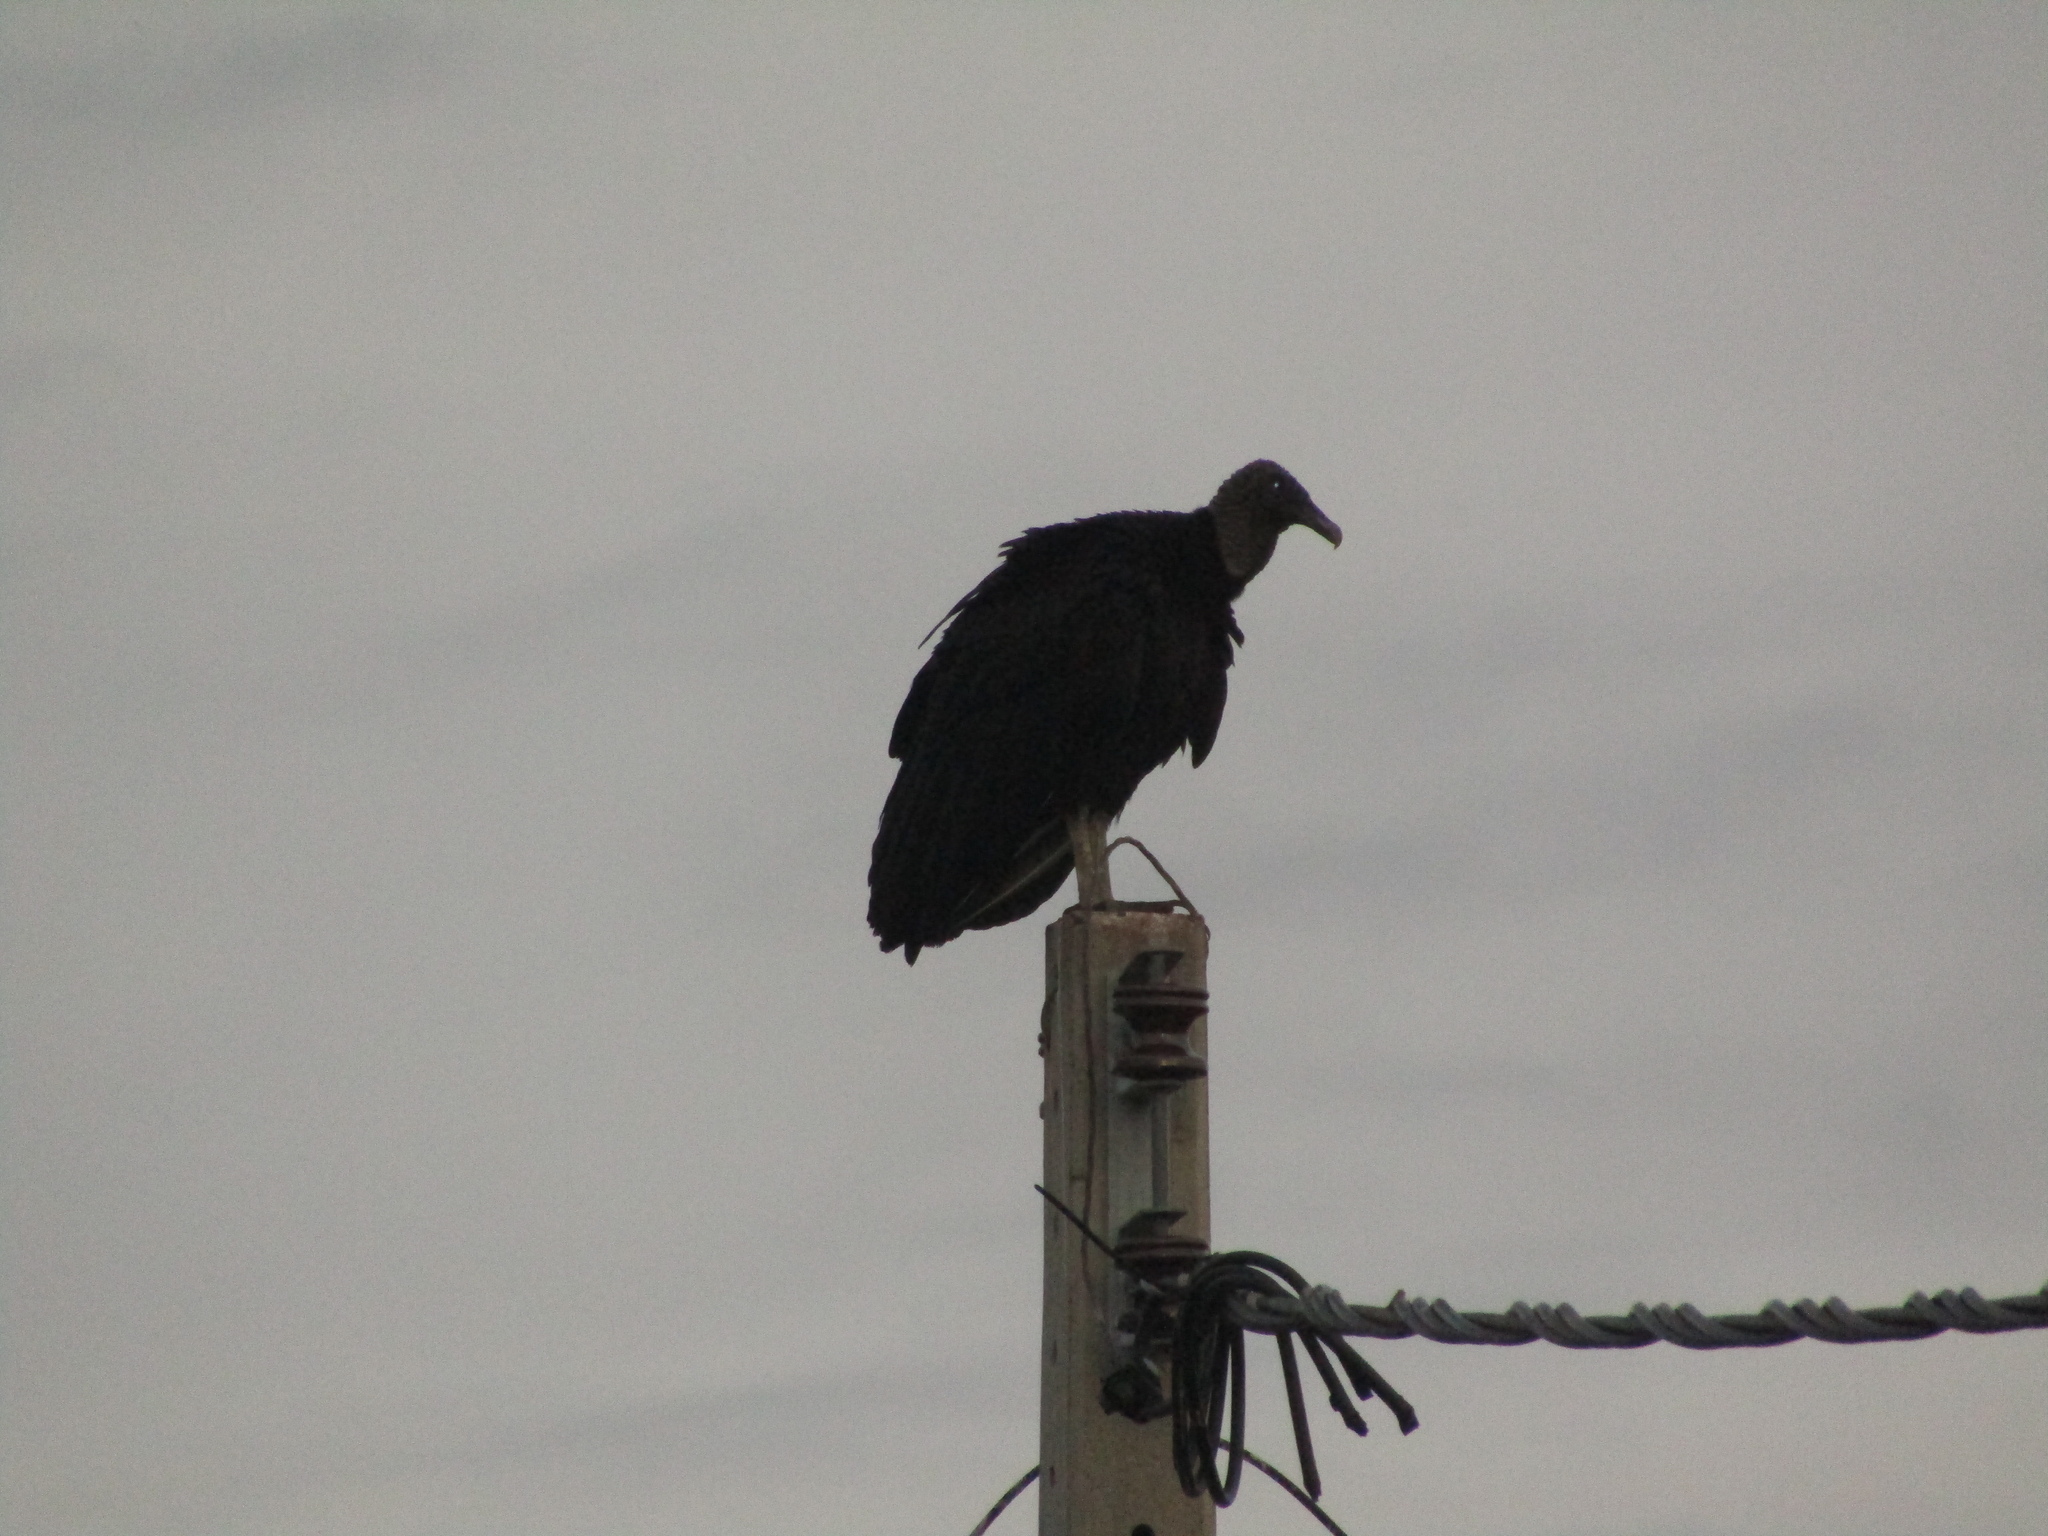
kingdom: Animalia
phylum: Chordata
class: Aves
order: Accipitriformes
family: Cathartidae
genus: Coragyps
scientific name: Coragyps atratus
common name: Black vulture
